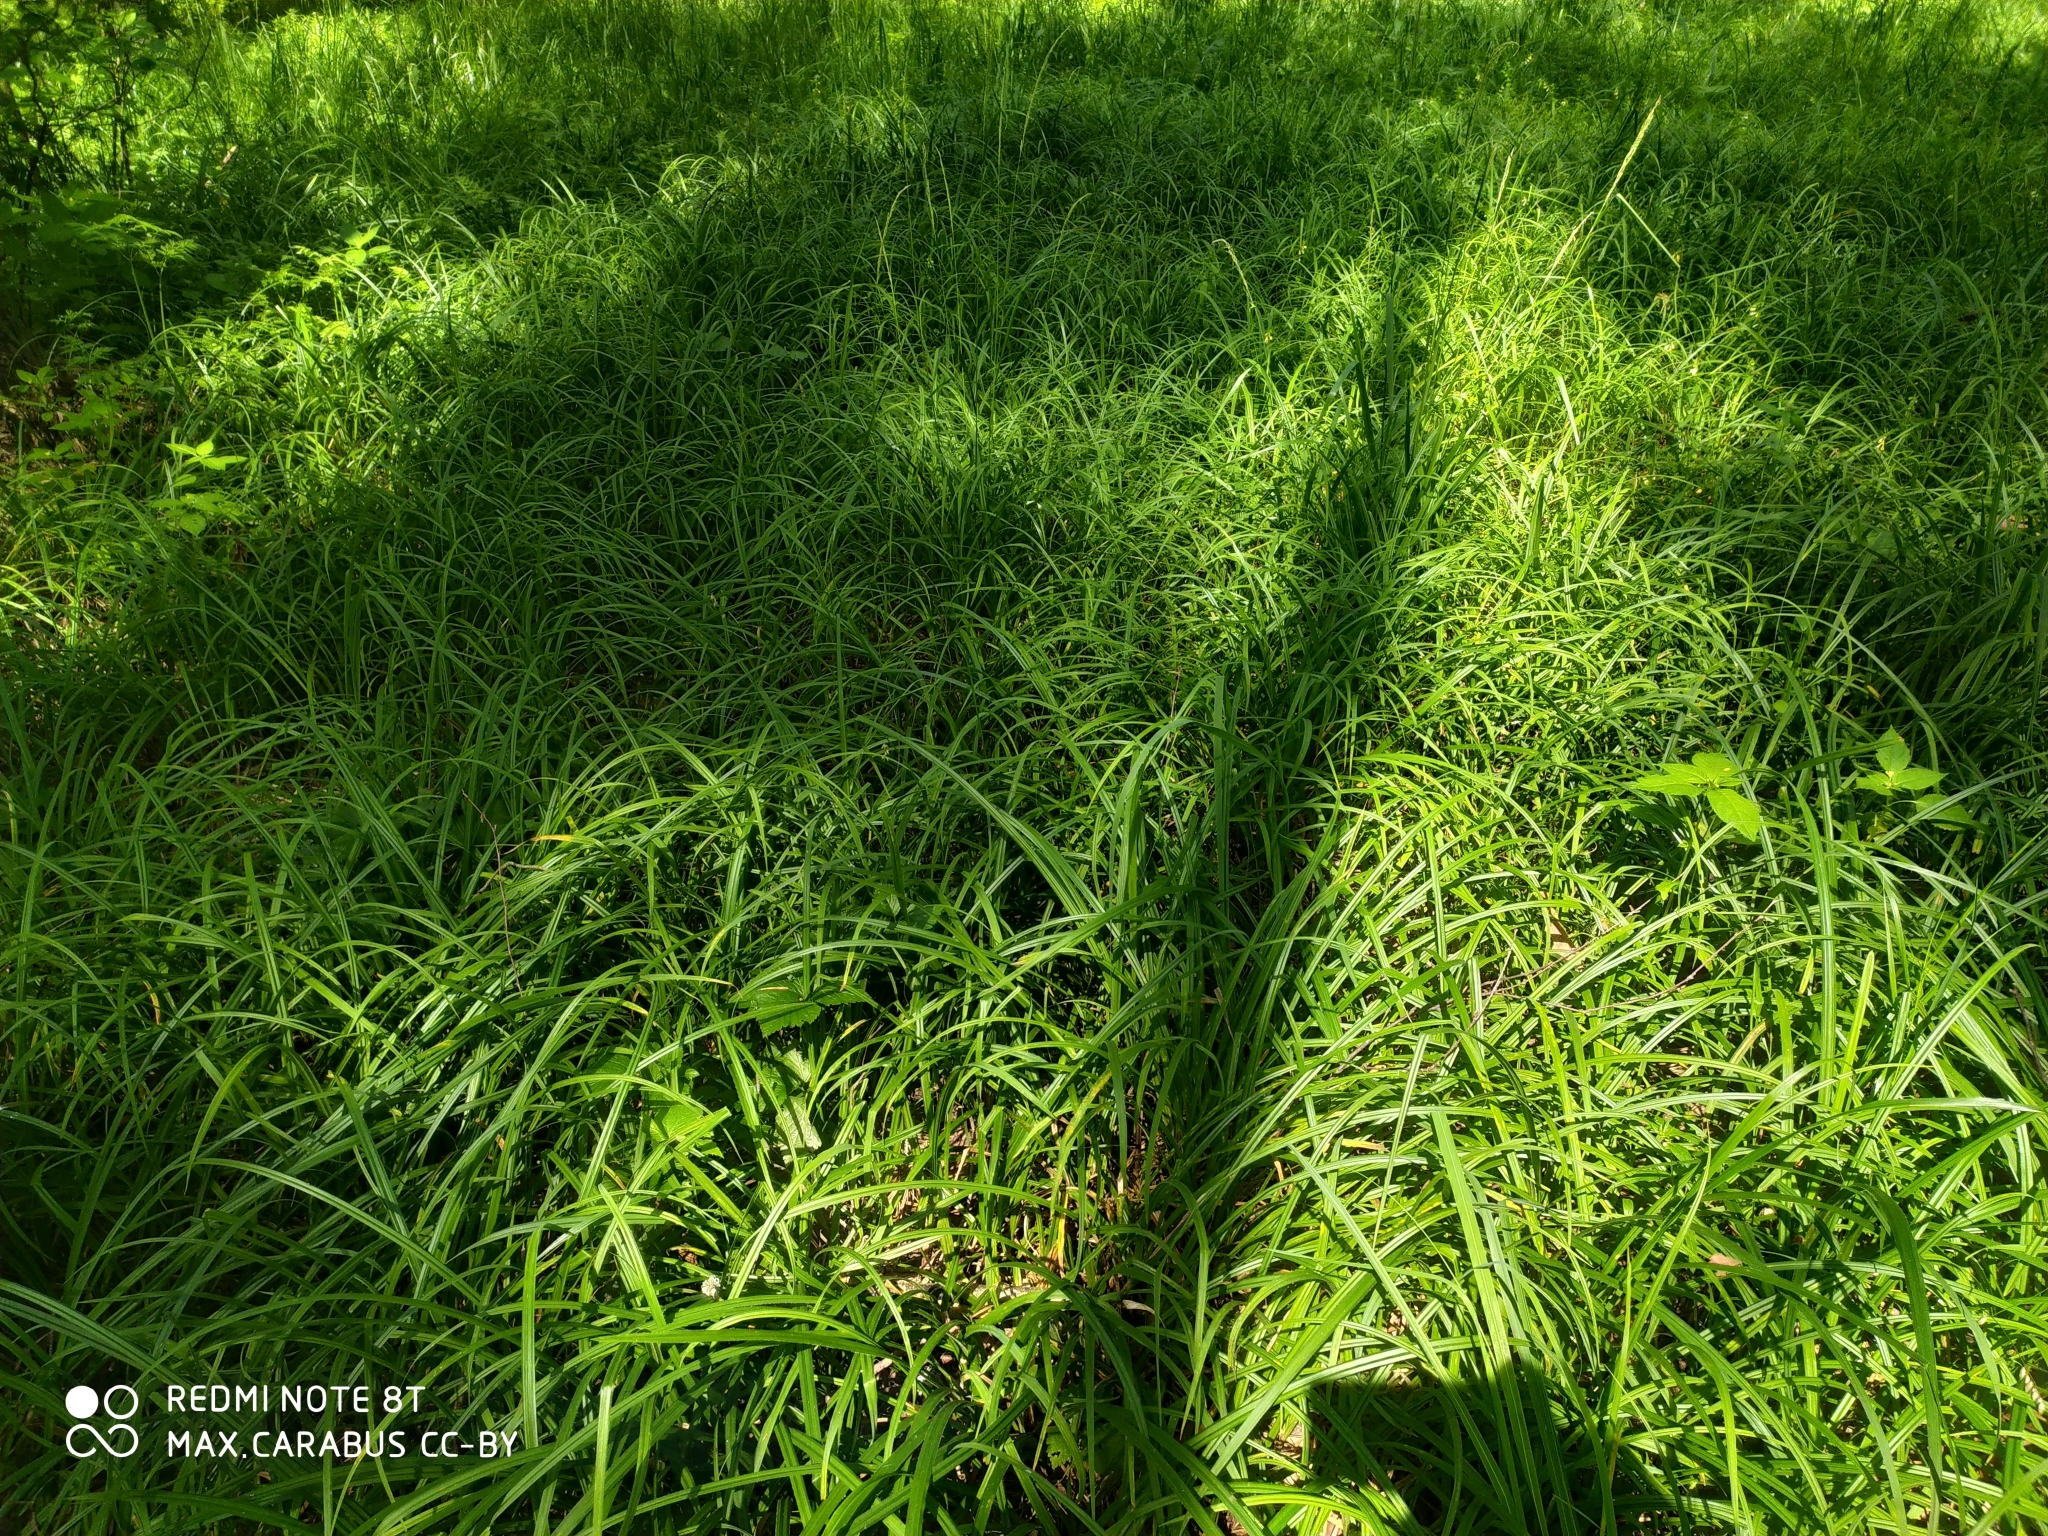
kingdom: Plantae
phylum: Tracheophyta
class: Liliopsida
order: Poales
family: Cyperaceae
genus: Carex
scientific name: Carex pilosa
